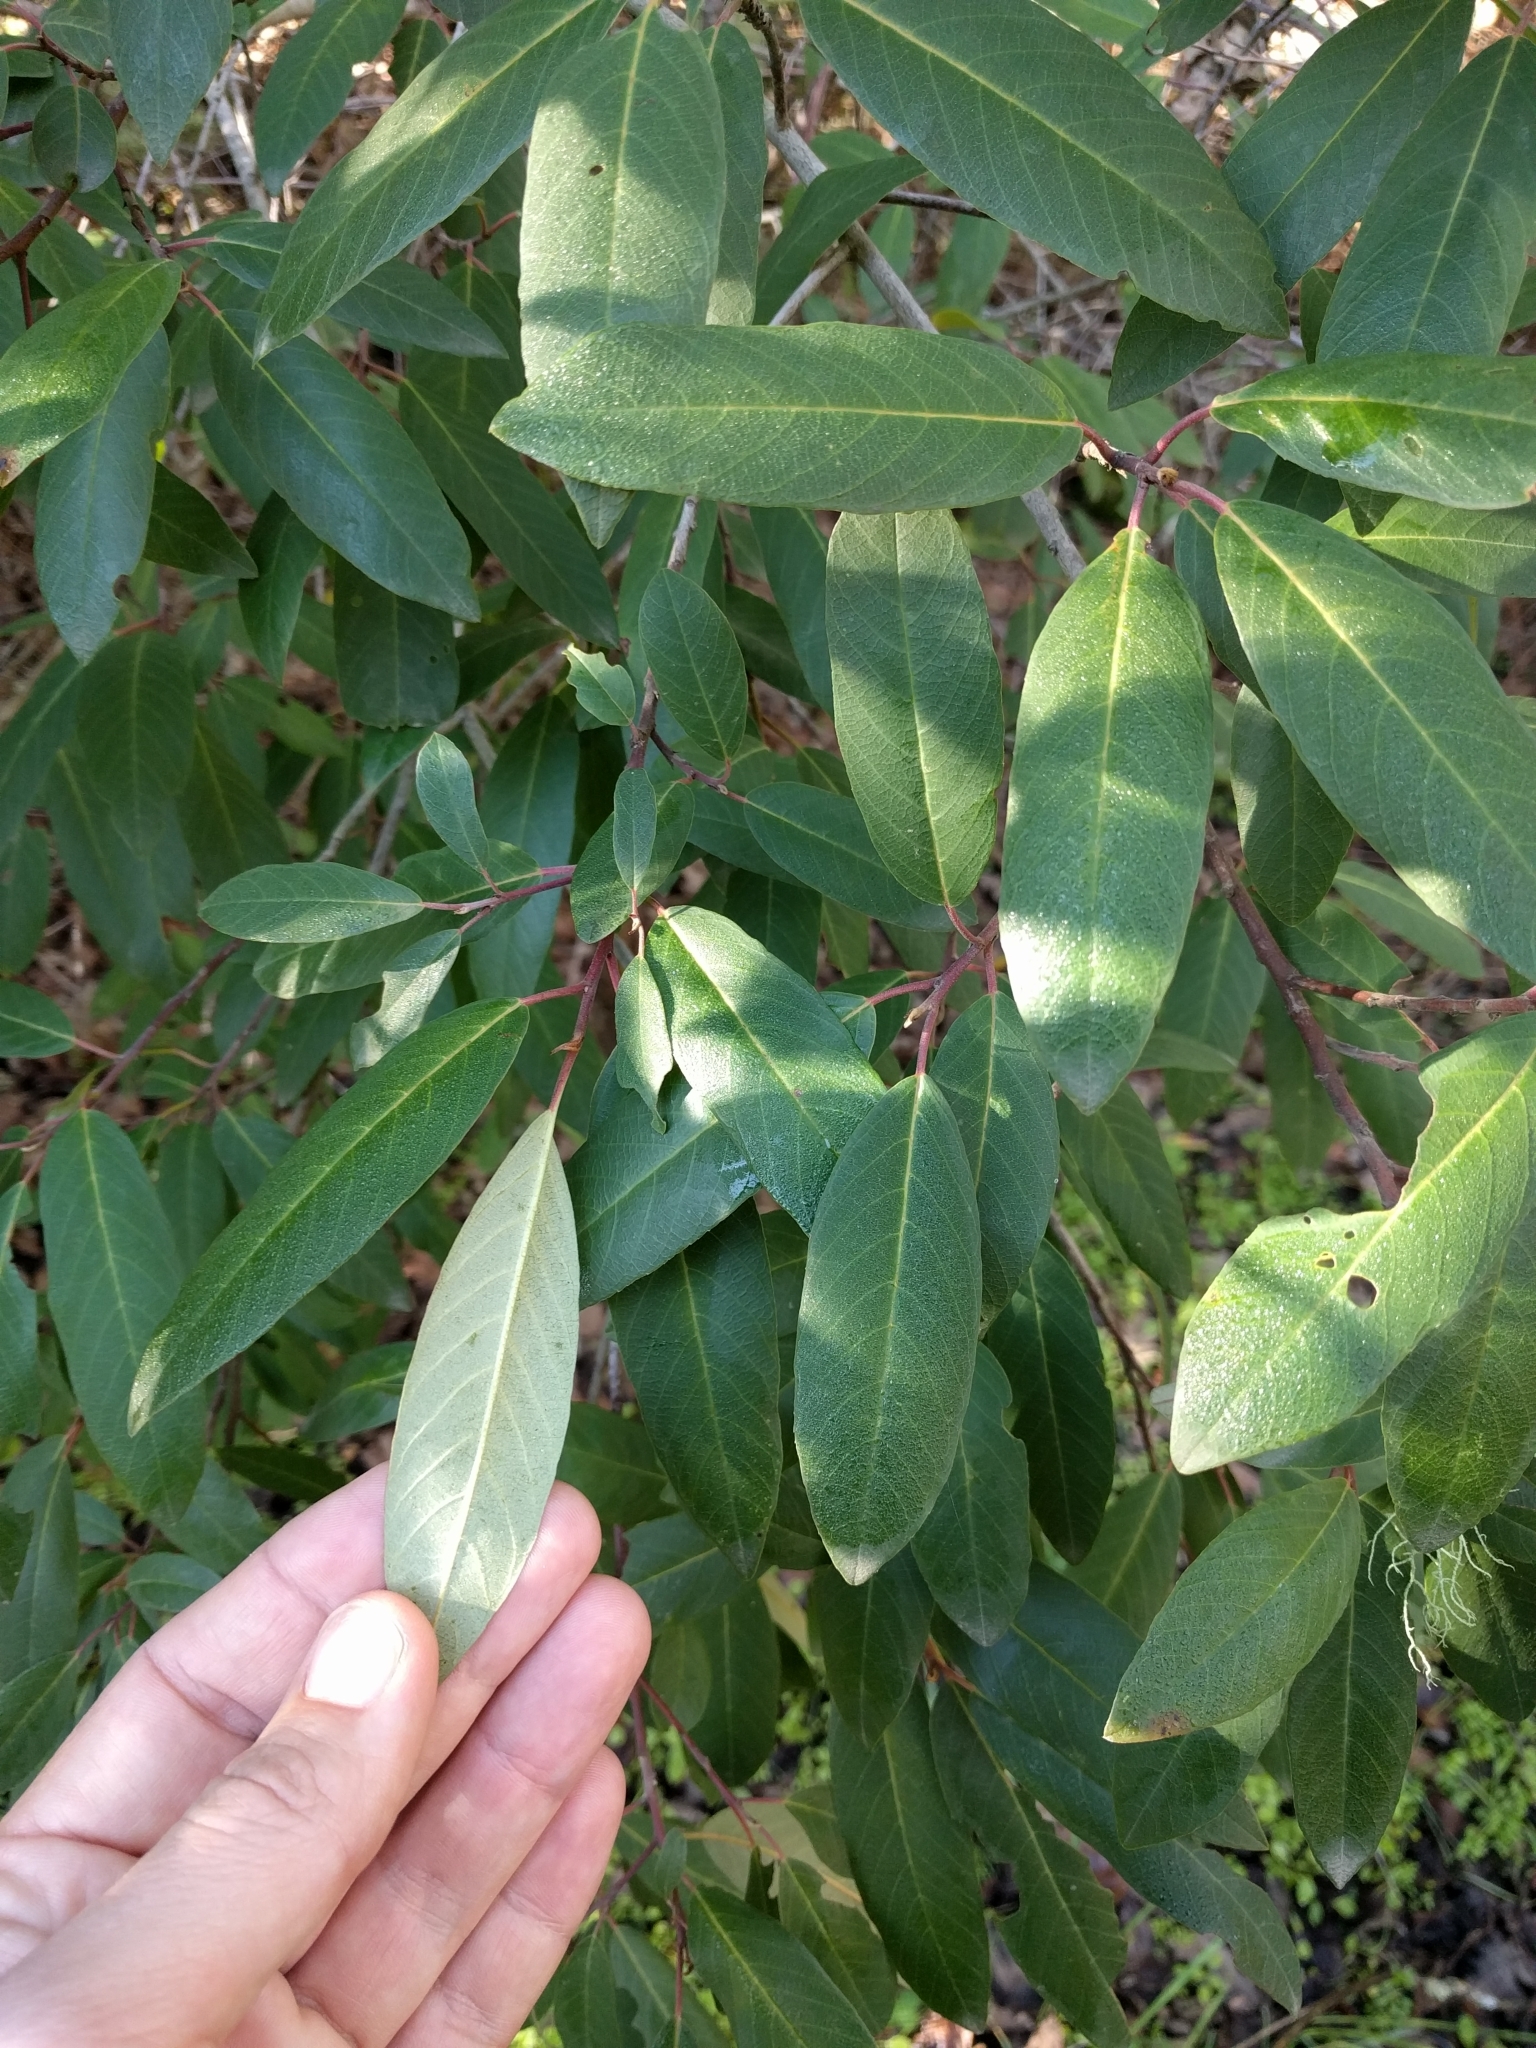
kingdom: Plantae
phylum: Tracheophyta
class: Magnoliopsida
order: Rosales
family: Rhamnaceae
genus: Frangula
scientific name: Frangula californica
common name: California buckthorn
